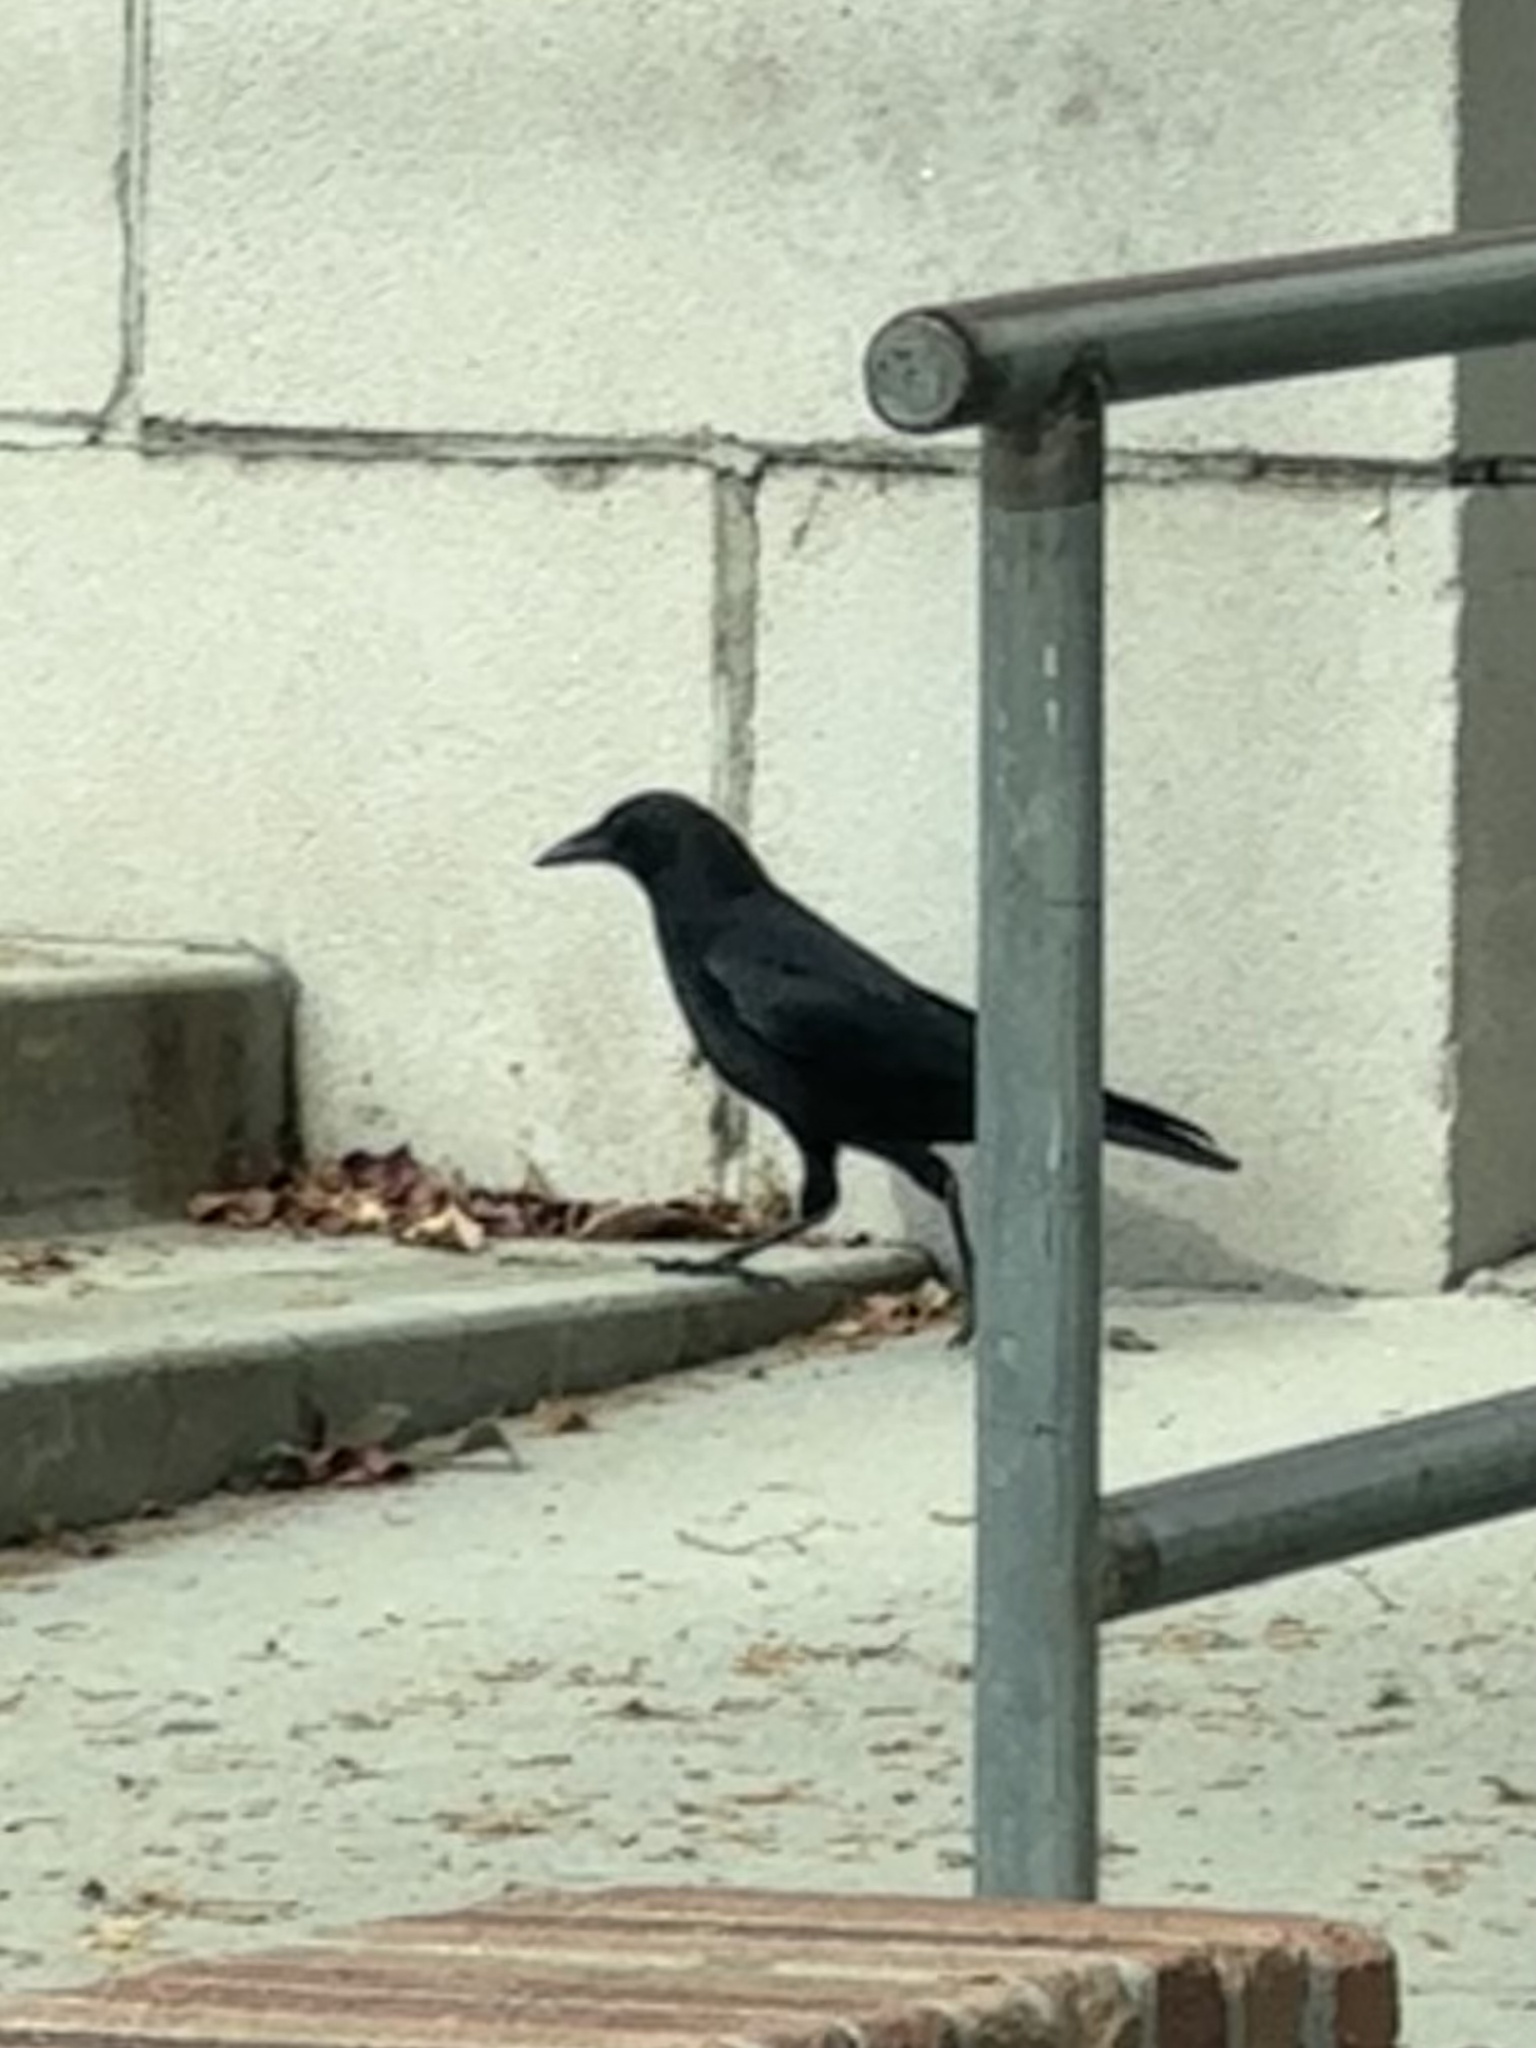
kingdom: Animalia
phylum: Chordata
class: Aves
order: Passeriformes
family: Corvidae
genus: Corvus
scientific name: Corvus brachyrhynchos
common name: American crow
